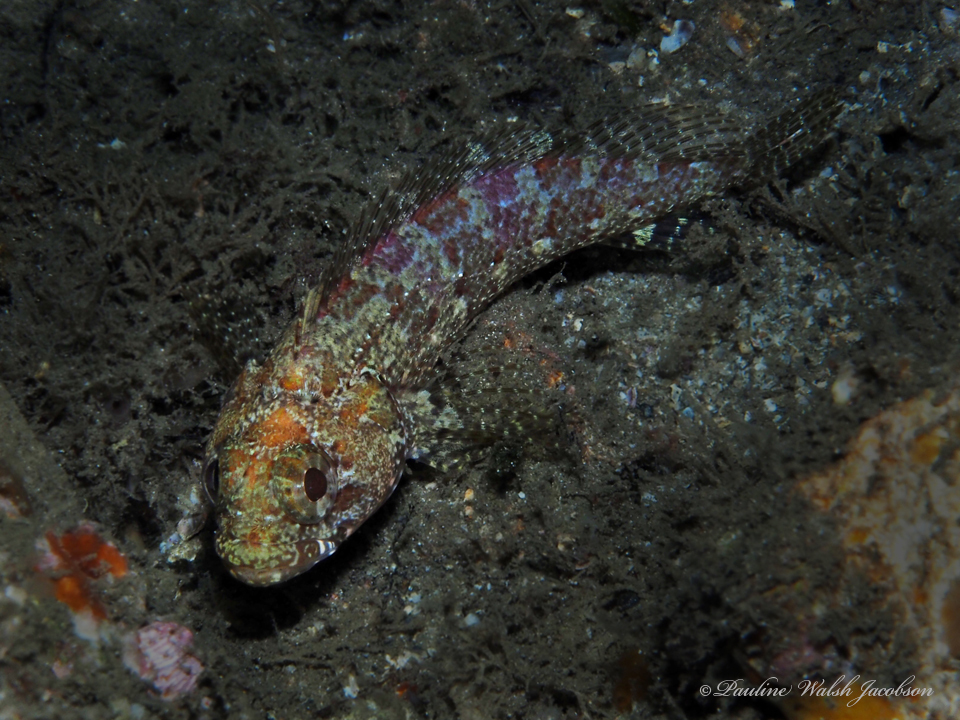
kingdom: Animalia
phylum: Chordata
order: Perciformes
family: Labrisomidae
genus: Gobioclinus
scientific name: Gobioclinus kalisherae
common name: Downy blenny
